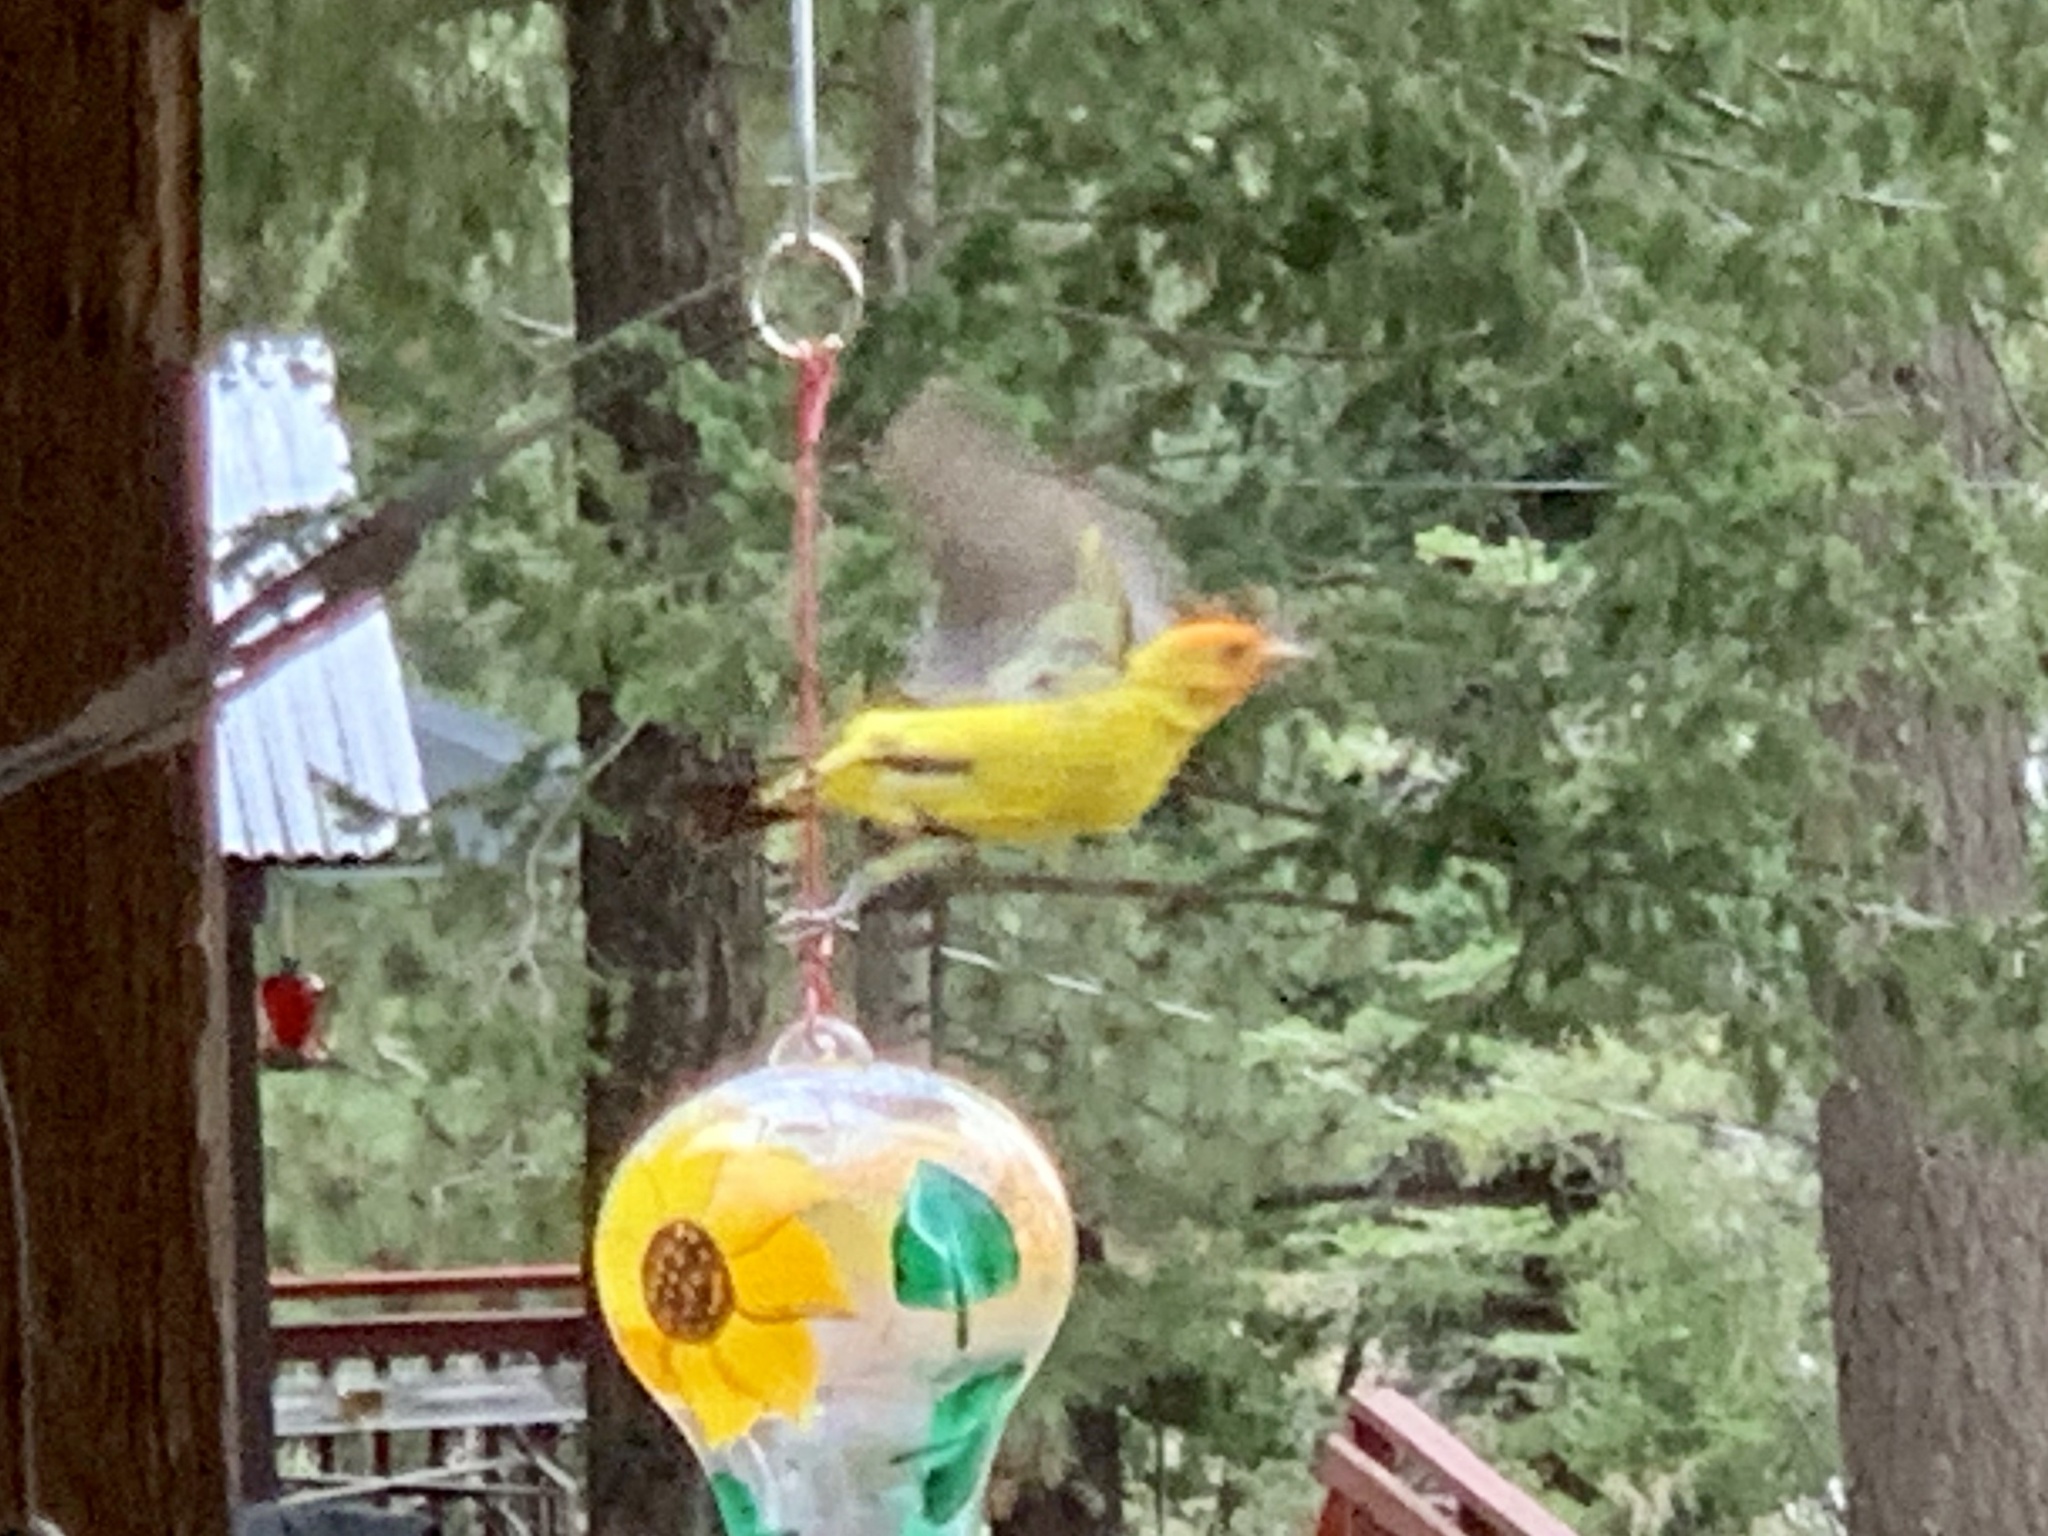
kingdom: Animalia
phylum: Chordata
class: Aves
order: Passeriformes
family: Cardinalidae
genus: Piranga
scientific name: Piranga ludoviciana
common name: Western tanager
